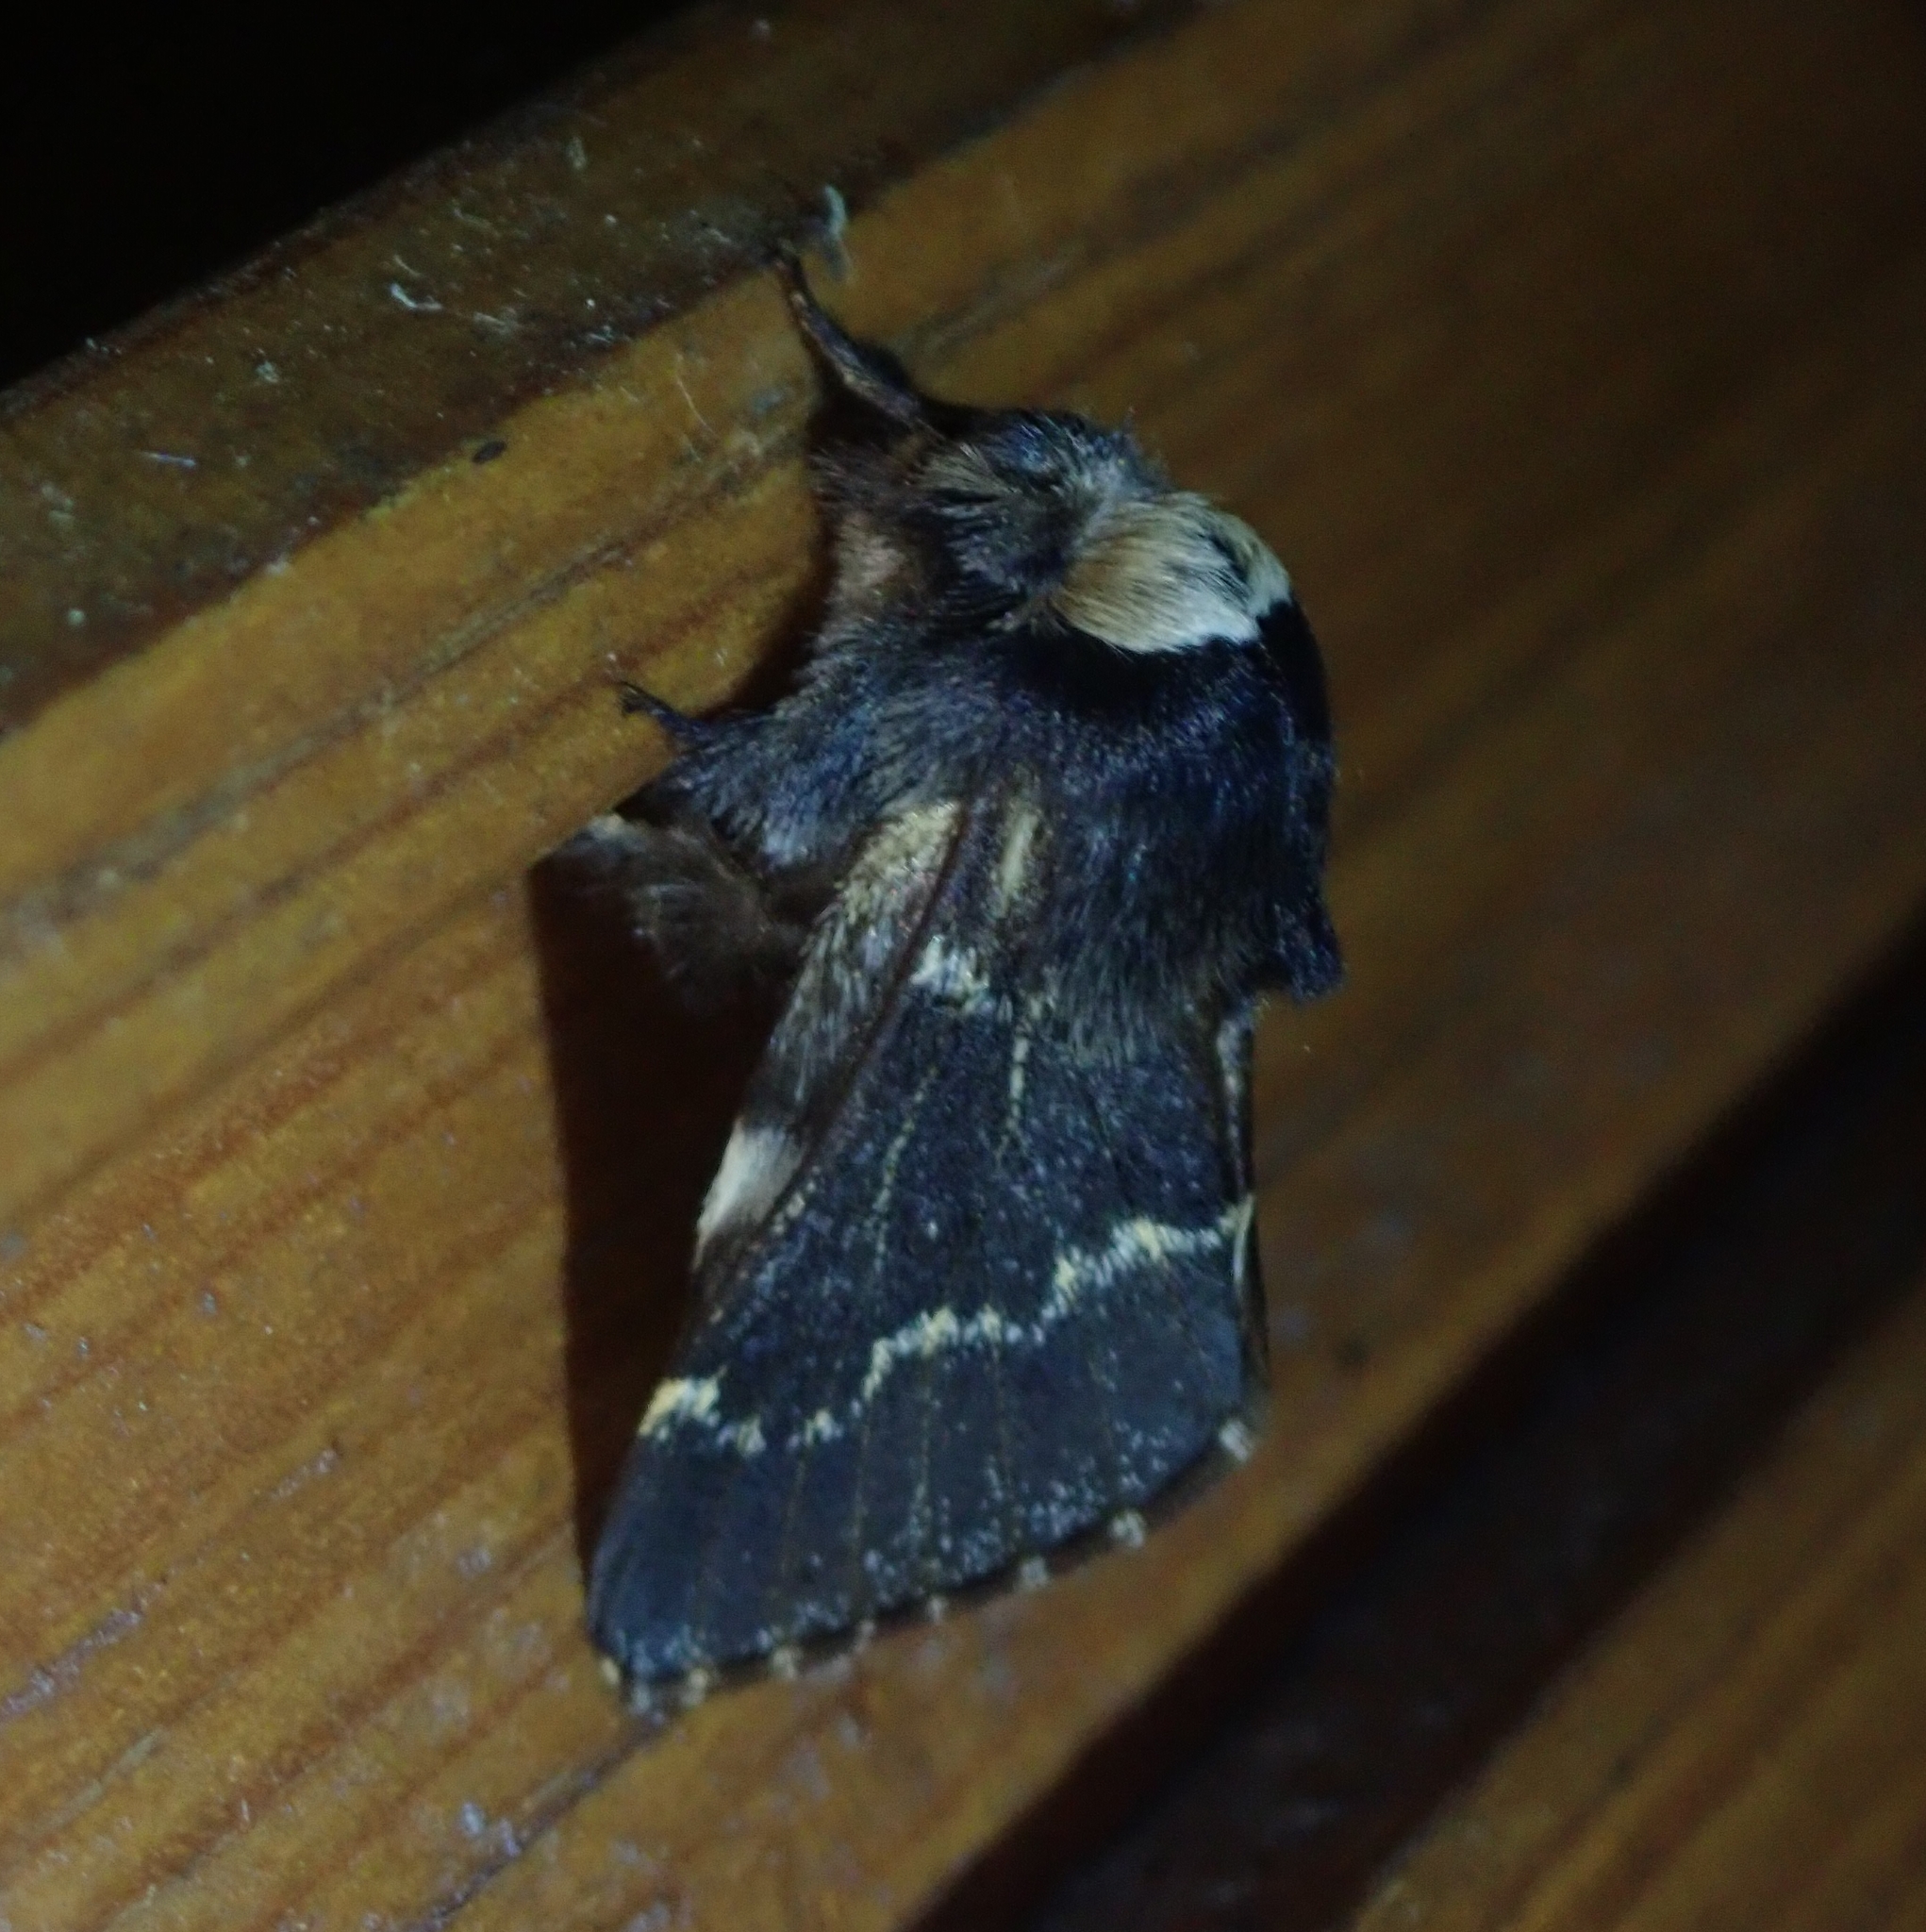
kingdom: Animalia
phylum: Arthropoda
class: Insecta
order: Lepidoptera
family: Lasiocampidae
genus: Poecilocampa
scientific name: Poecilocampa populi
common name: December moth
